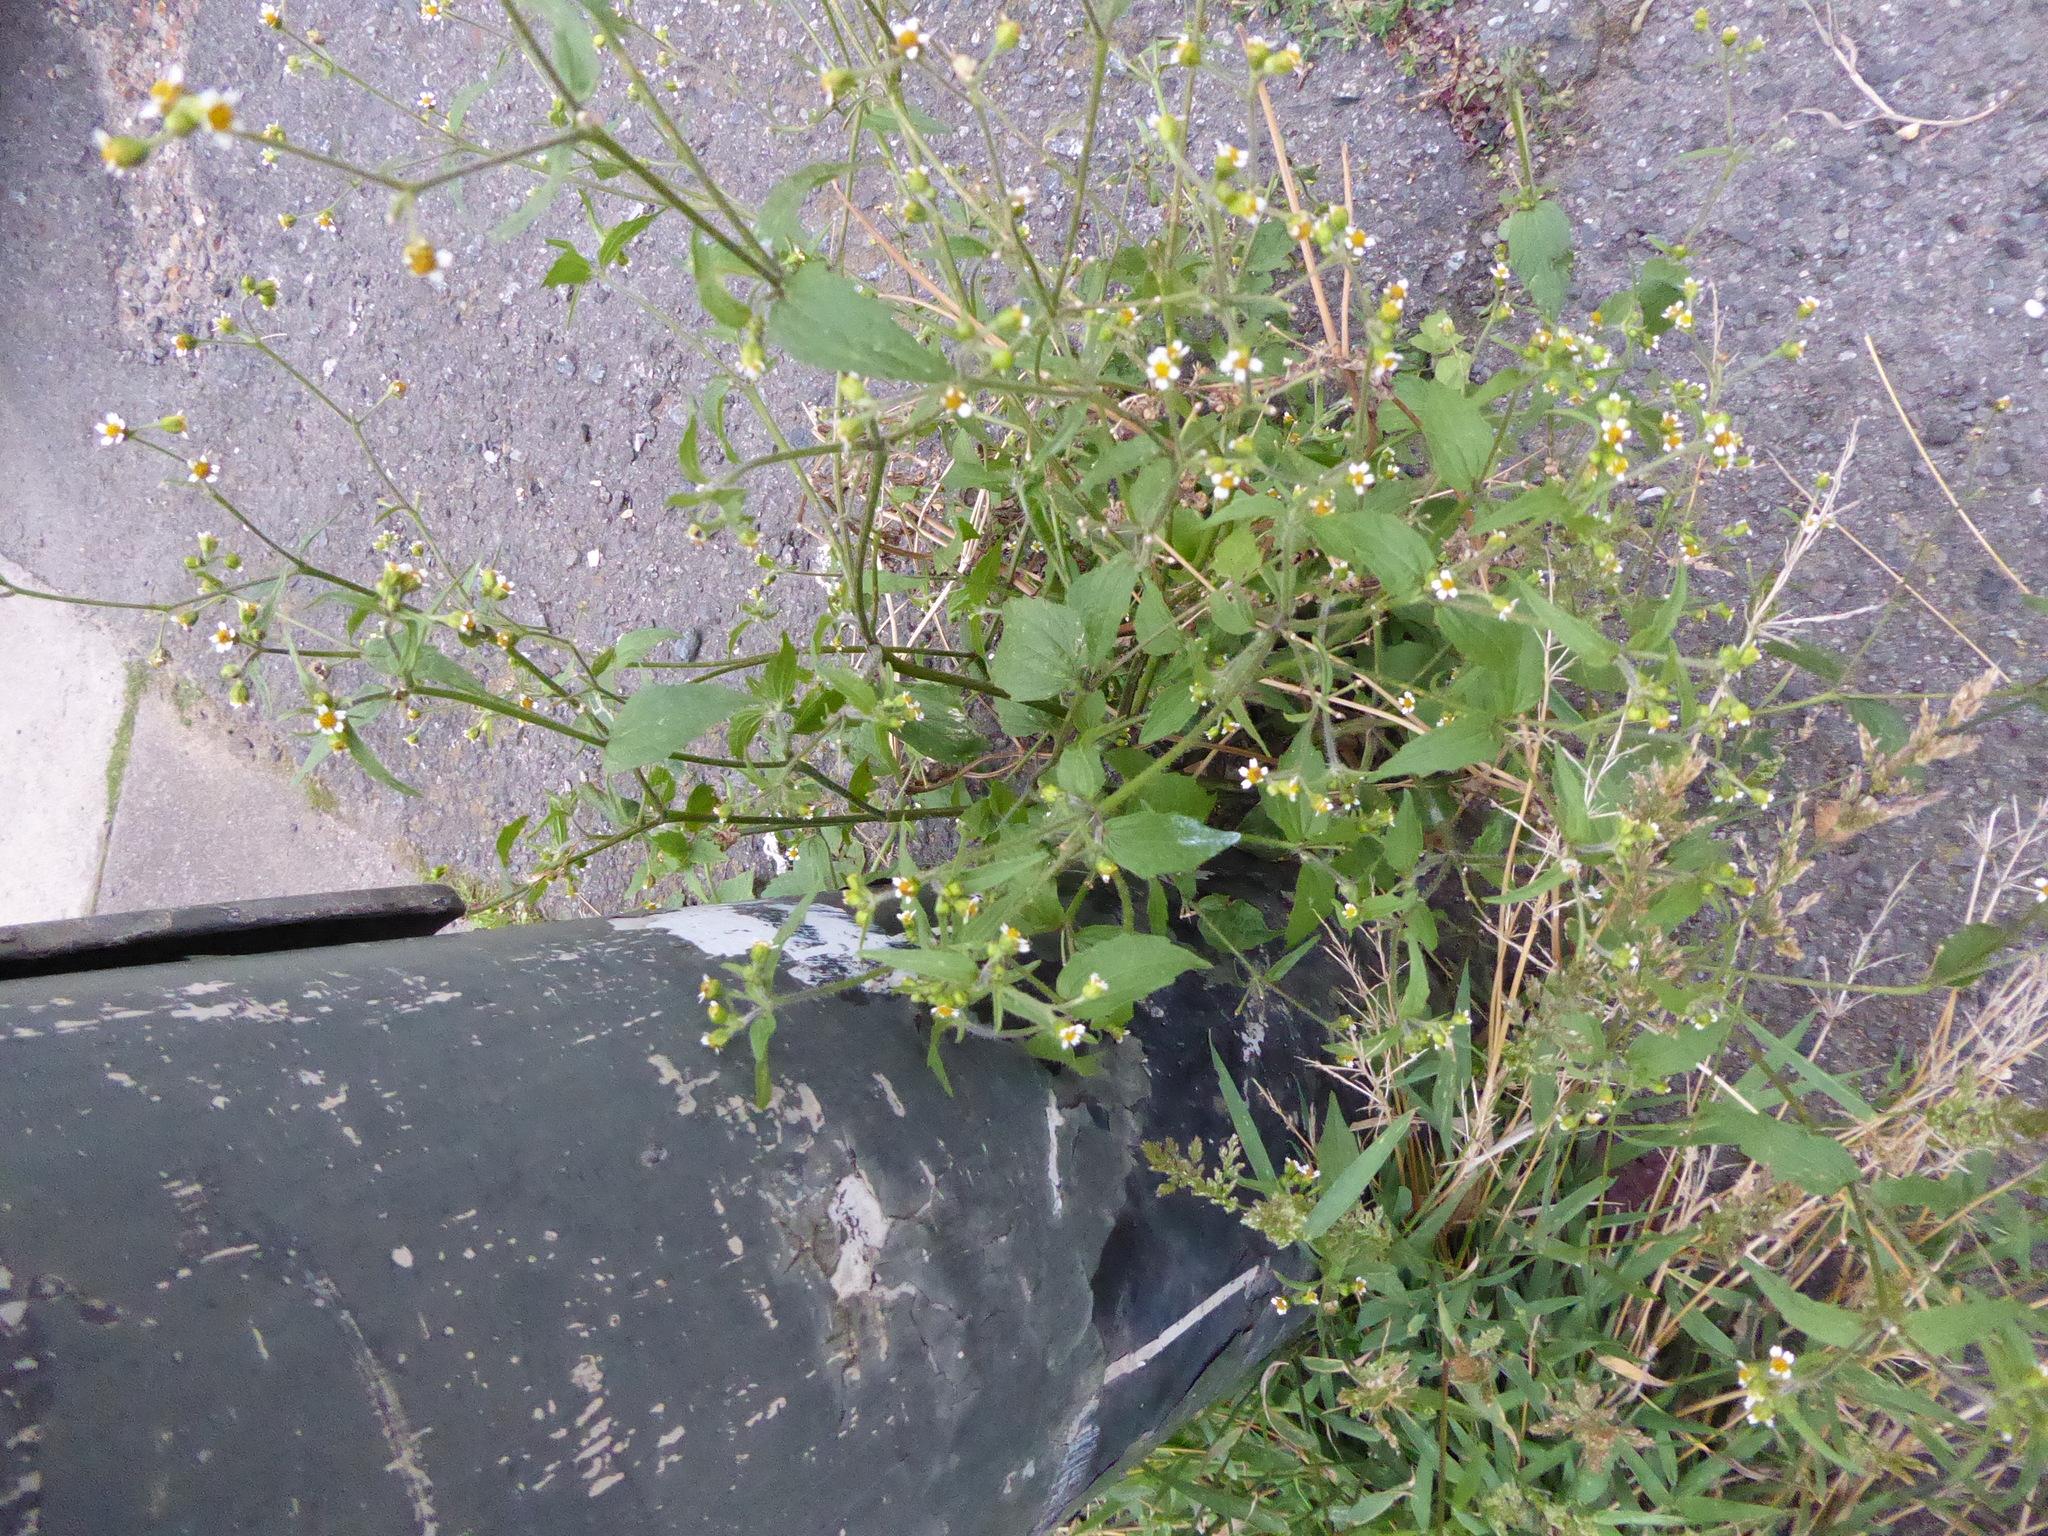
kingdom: Plantae
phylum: Tracheophyta
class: Magnoliopsida
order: Asterales
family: Asteraceae
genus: Galinsoga
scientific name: Galinsoga quadriradiata
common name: Shaggy soldier
